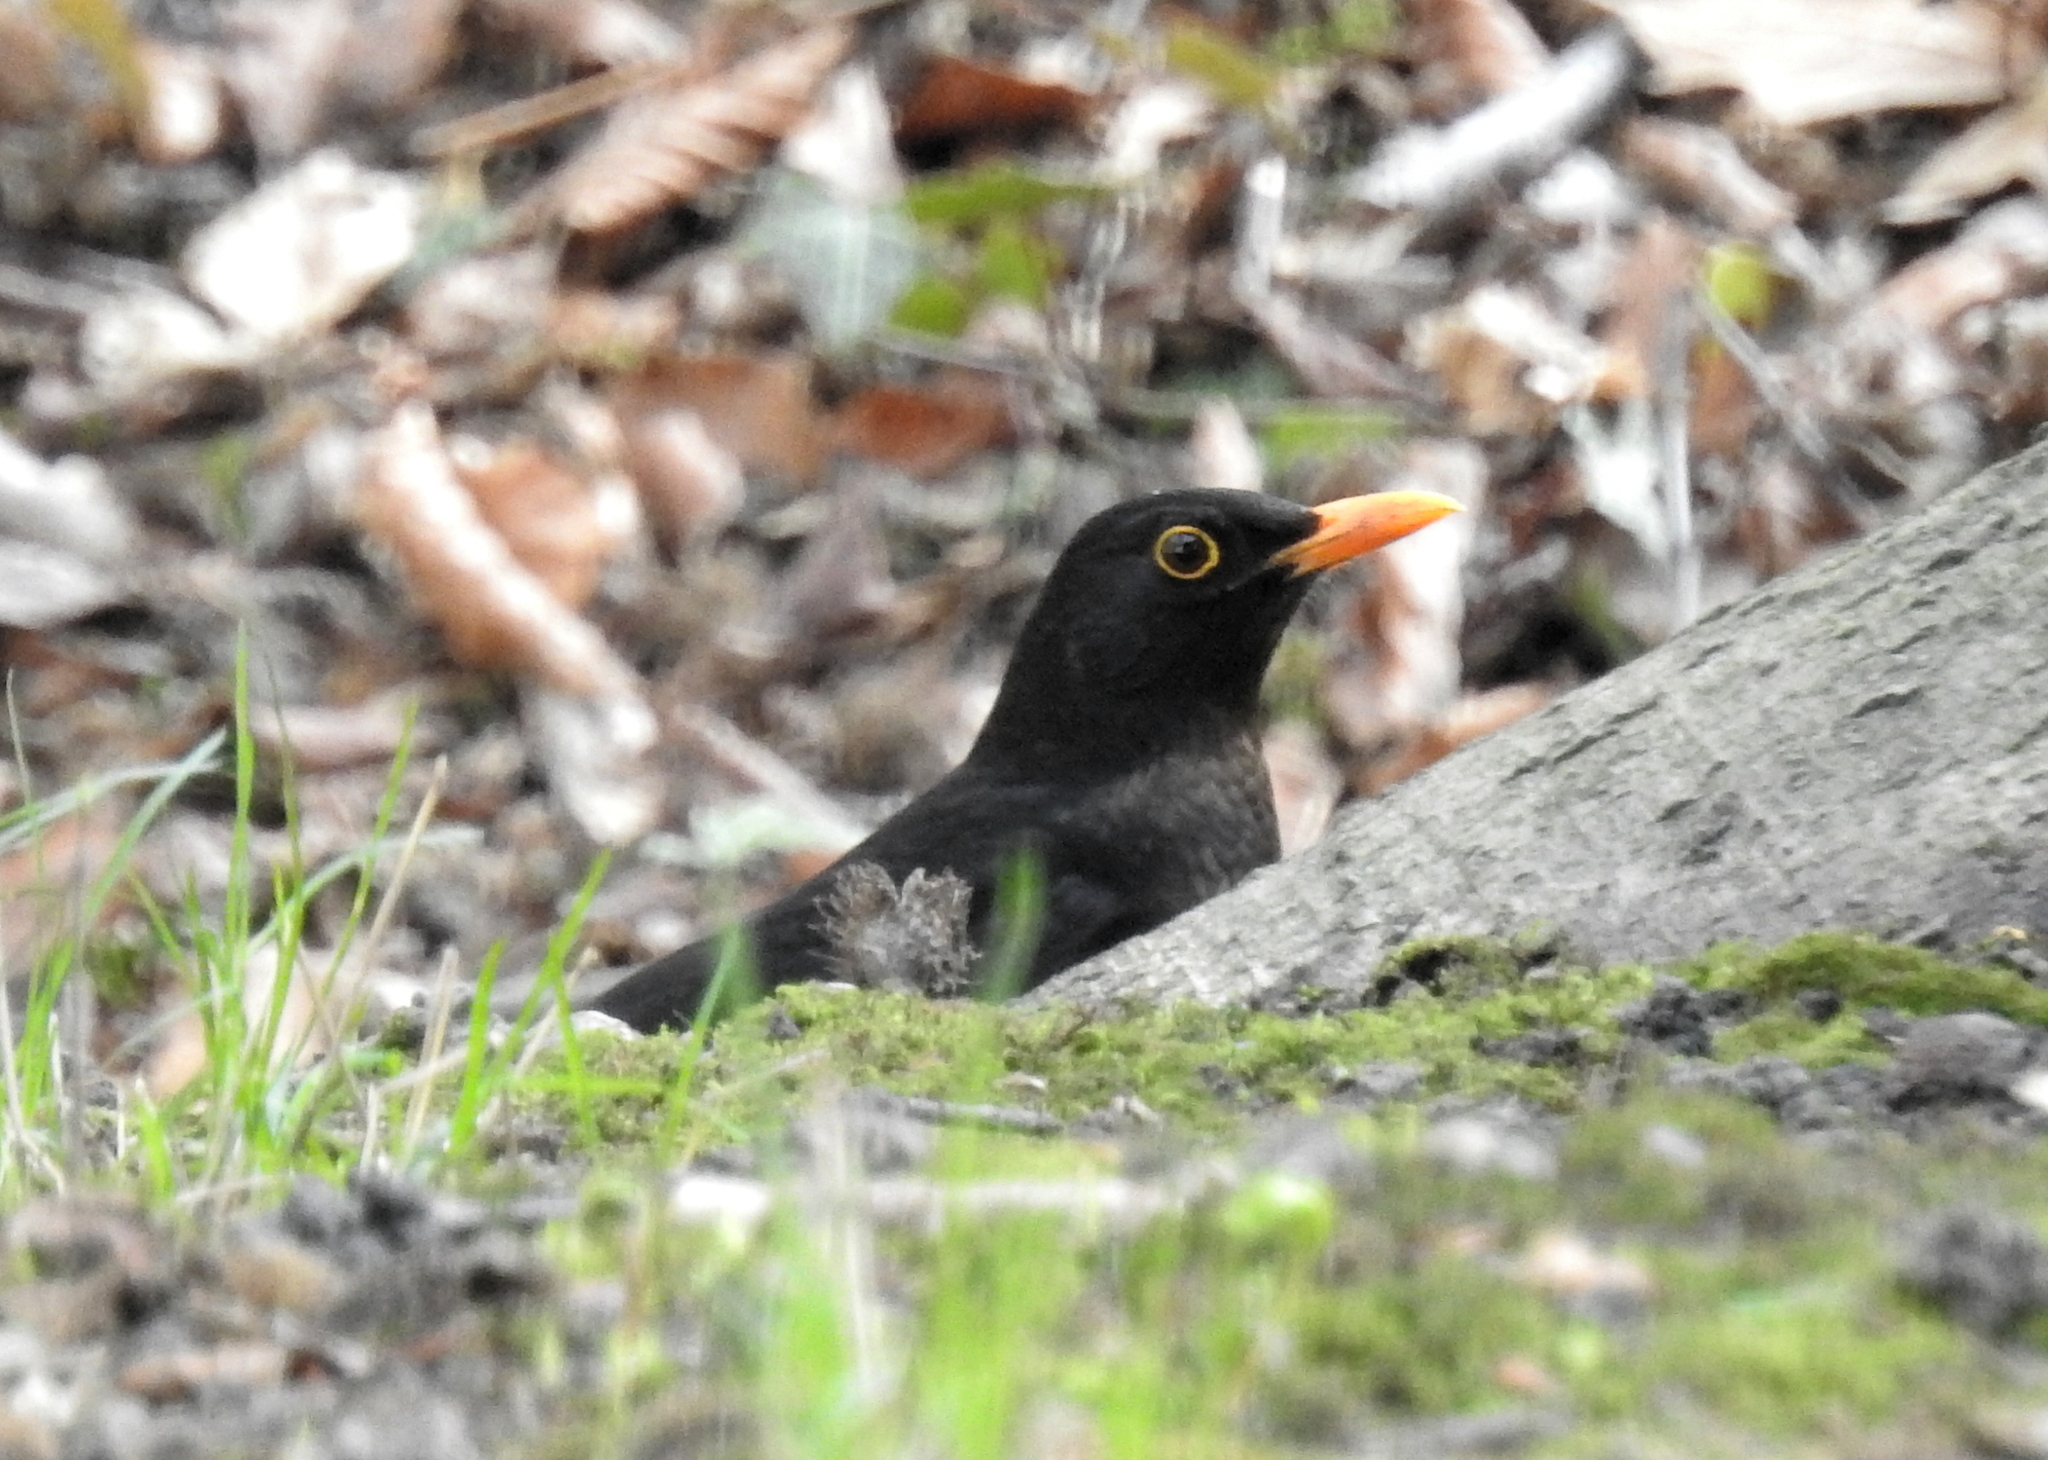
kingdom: Animalia
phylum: Chordata
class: Aves
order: Passeriformes
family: Turdidae
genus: Turdus
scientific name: Turdus merula
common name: Common blackbird
